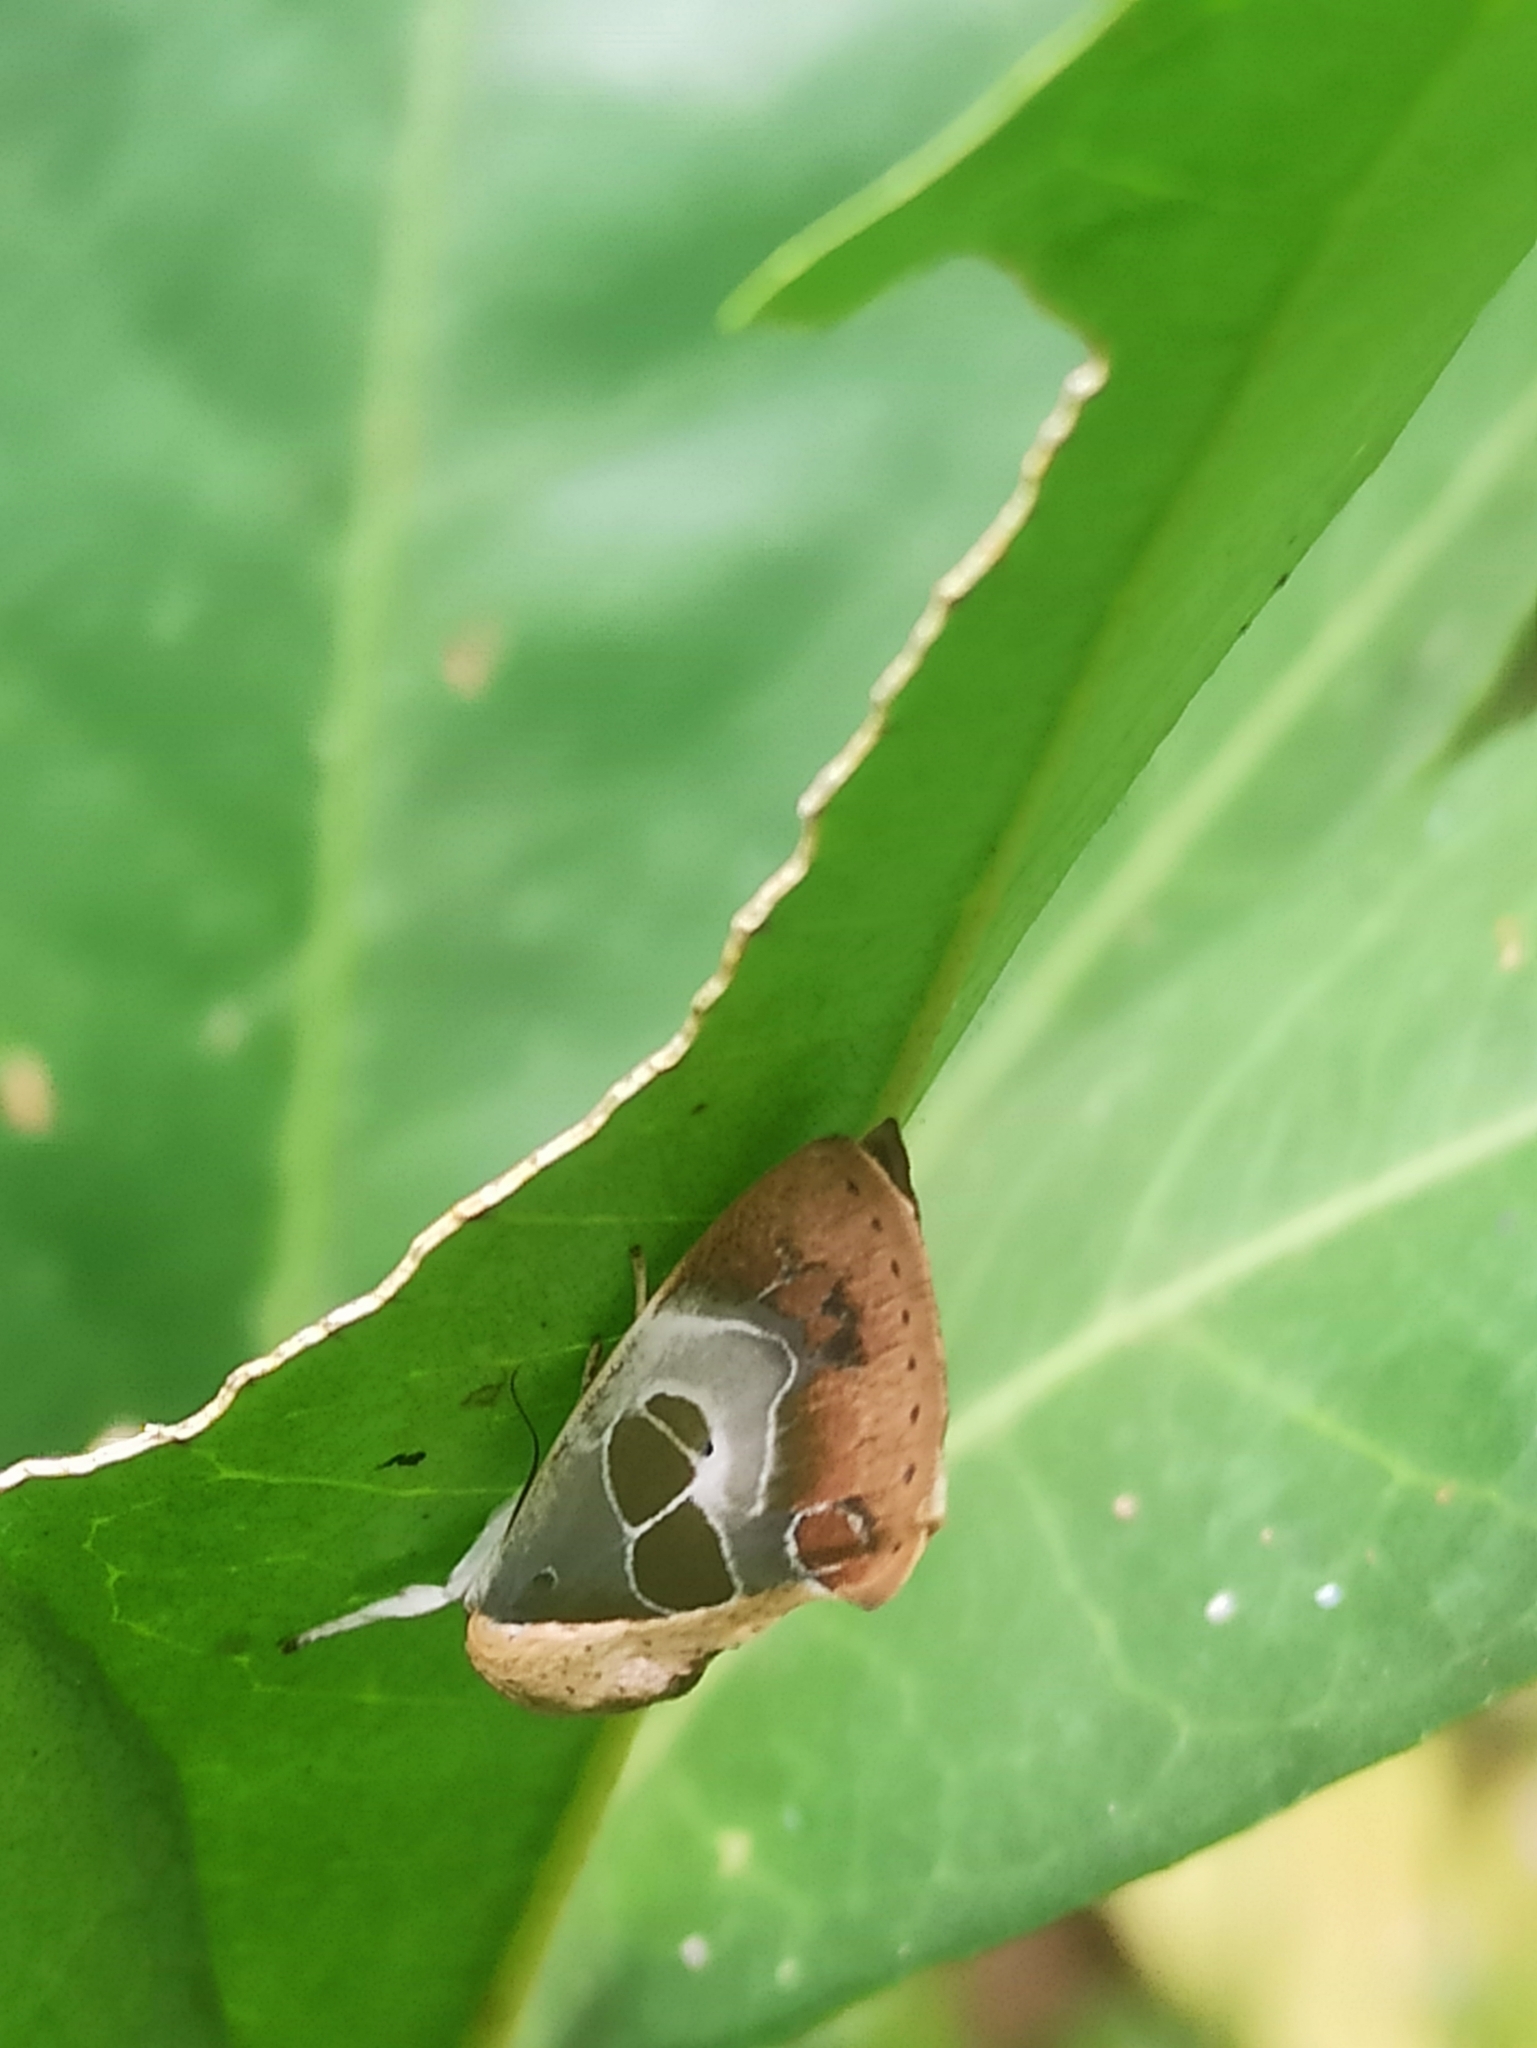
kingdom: Animalia
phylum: Arthropoda
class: Insecta
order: Lepidoptera
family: Nolidae
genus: Westermannia
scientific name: Westermannia superba
